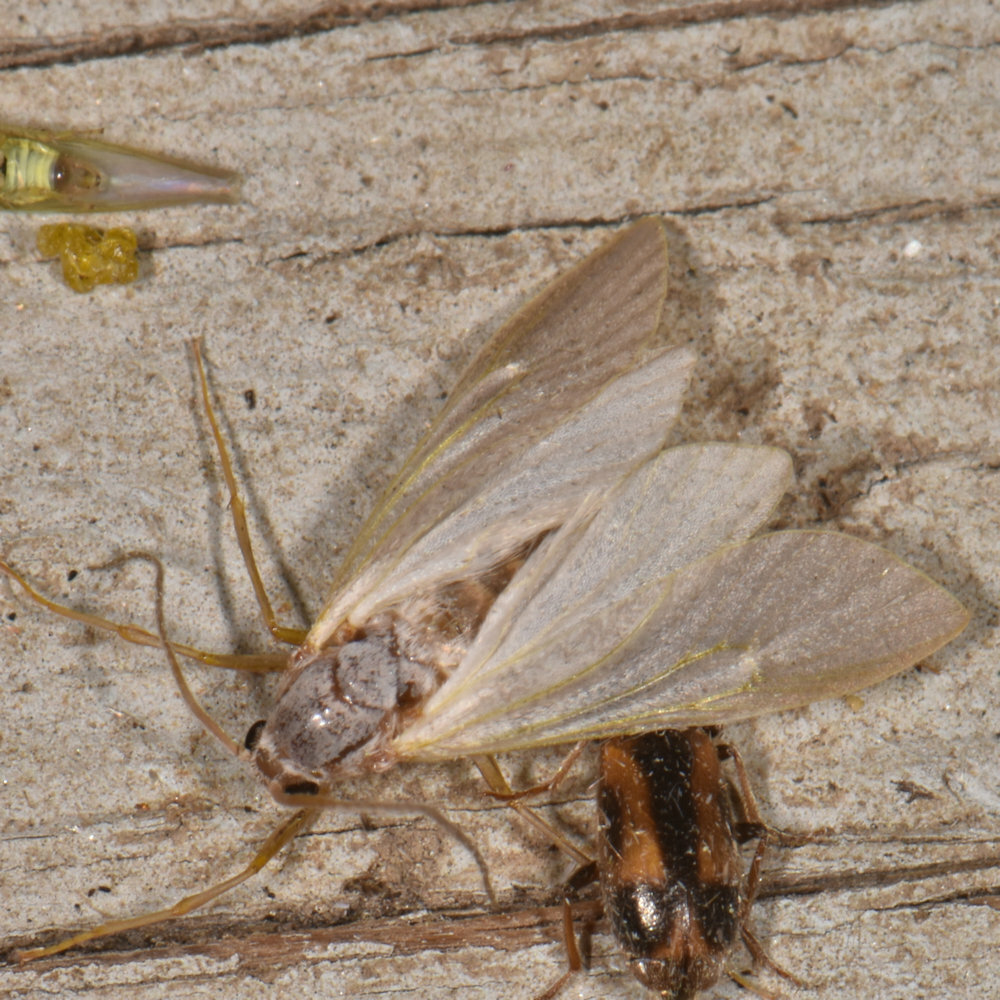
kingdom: Animalia
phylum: Arthropoda
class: Insecta
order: Lepidoptera
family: Crambidae
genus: Acentria
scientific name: Acentria ephemerella
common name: European water moth
